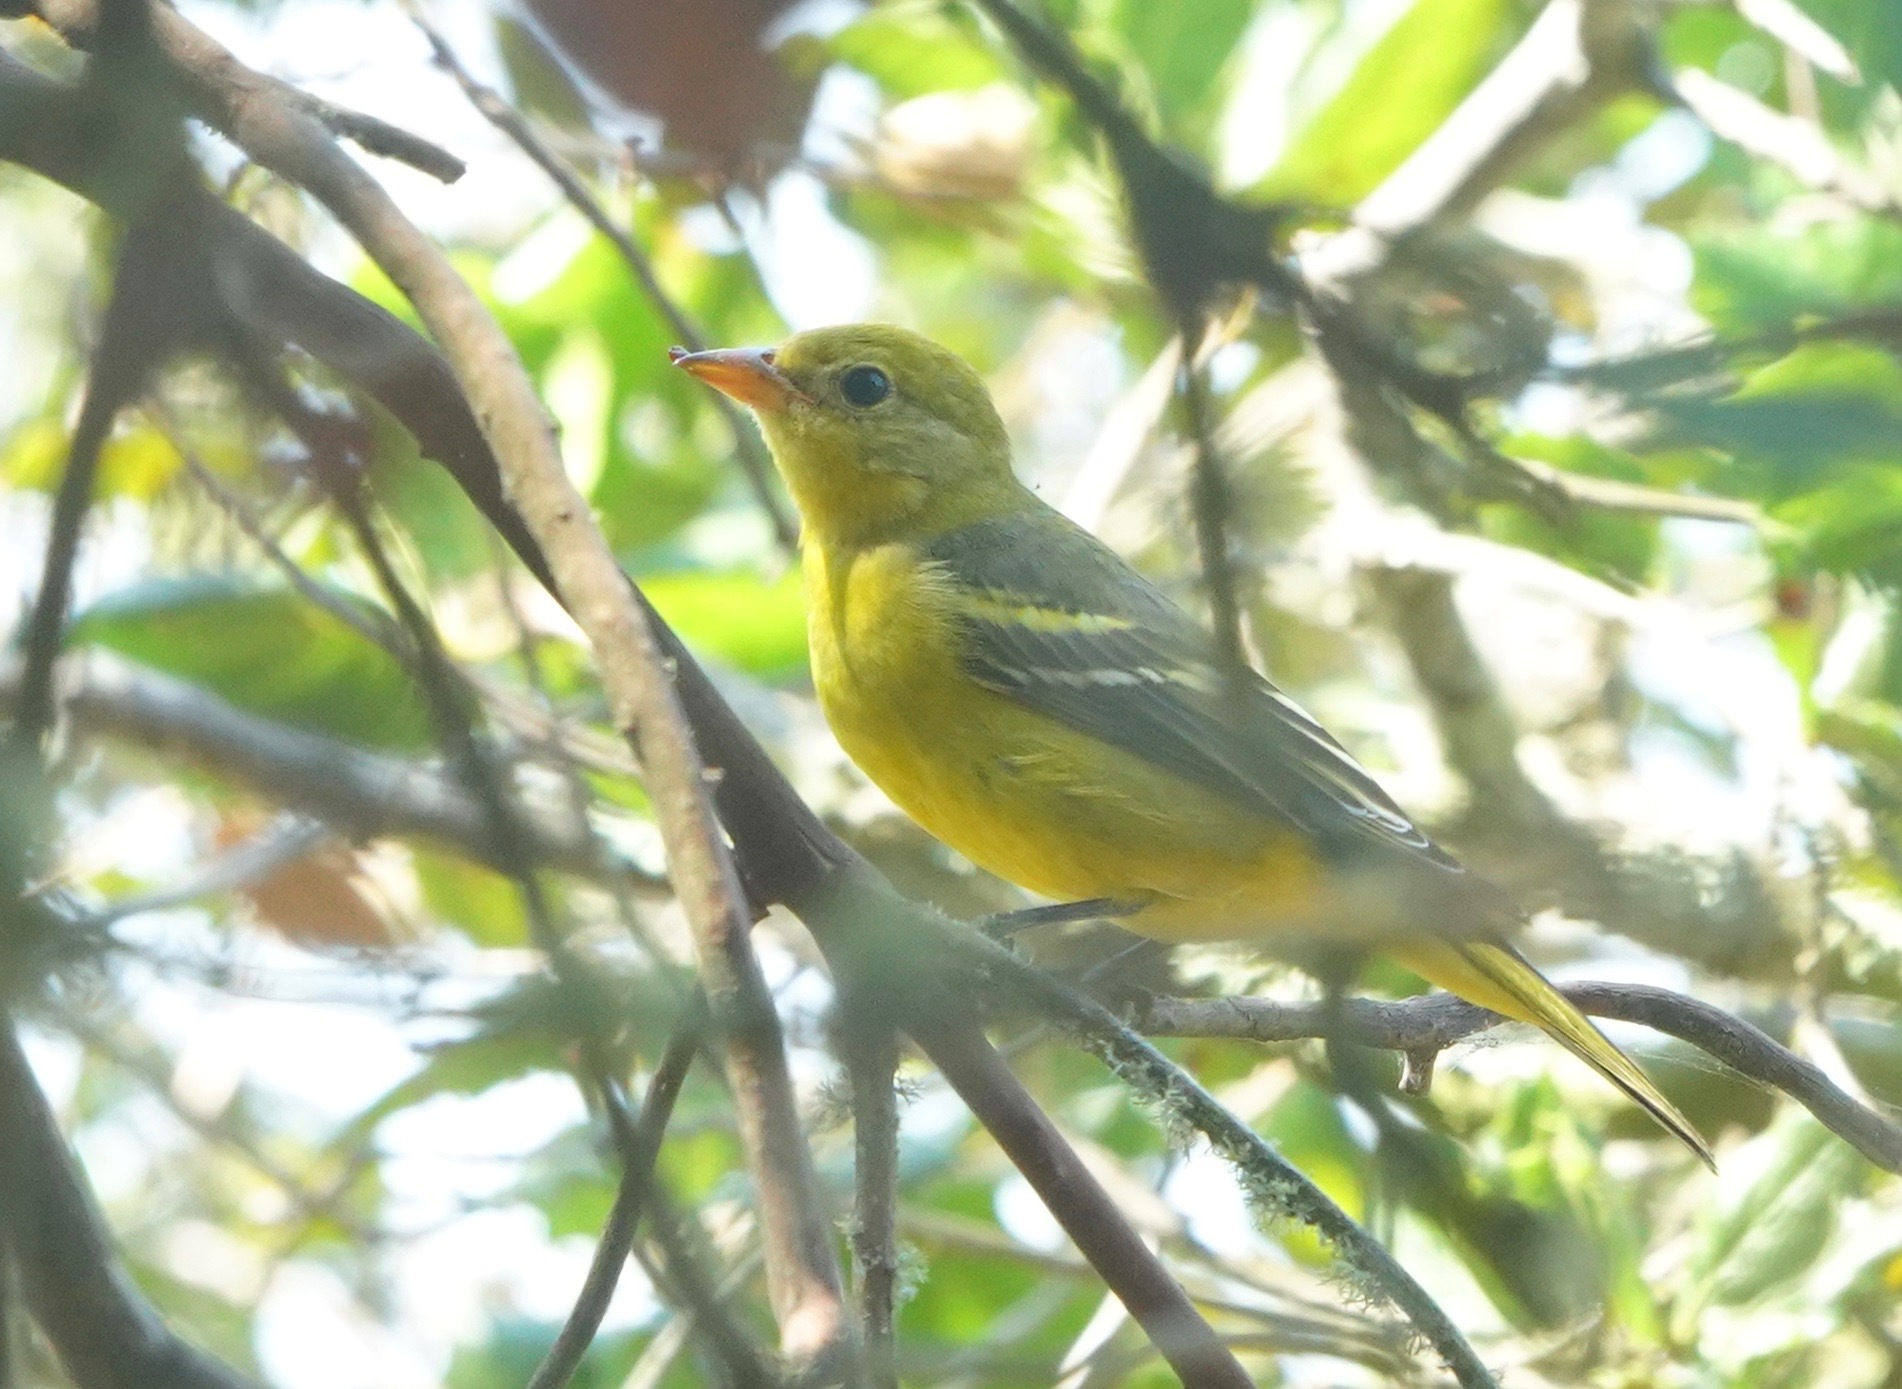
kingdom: Animalia
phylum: Chordata
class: Aves
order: Passeriformes
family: Cardinalidae
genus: Piranga
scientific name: Piranga ludoviciana
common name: Western tanager
